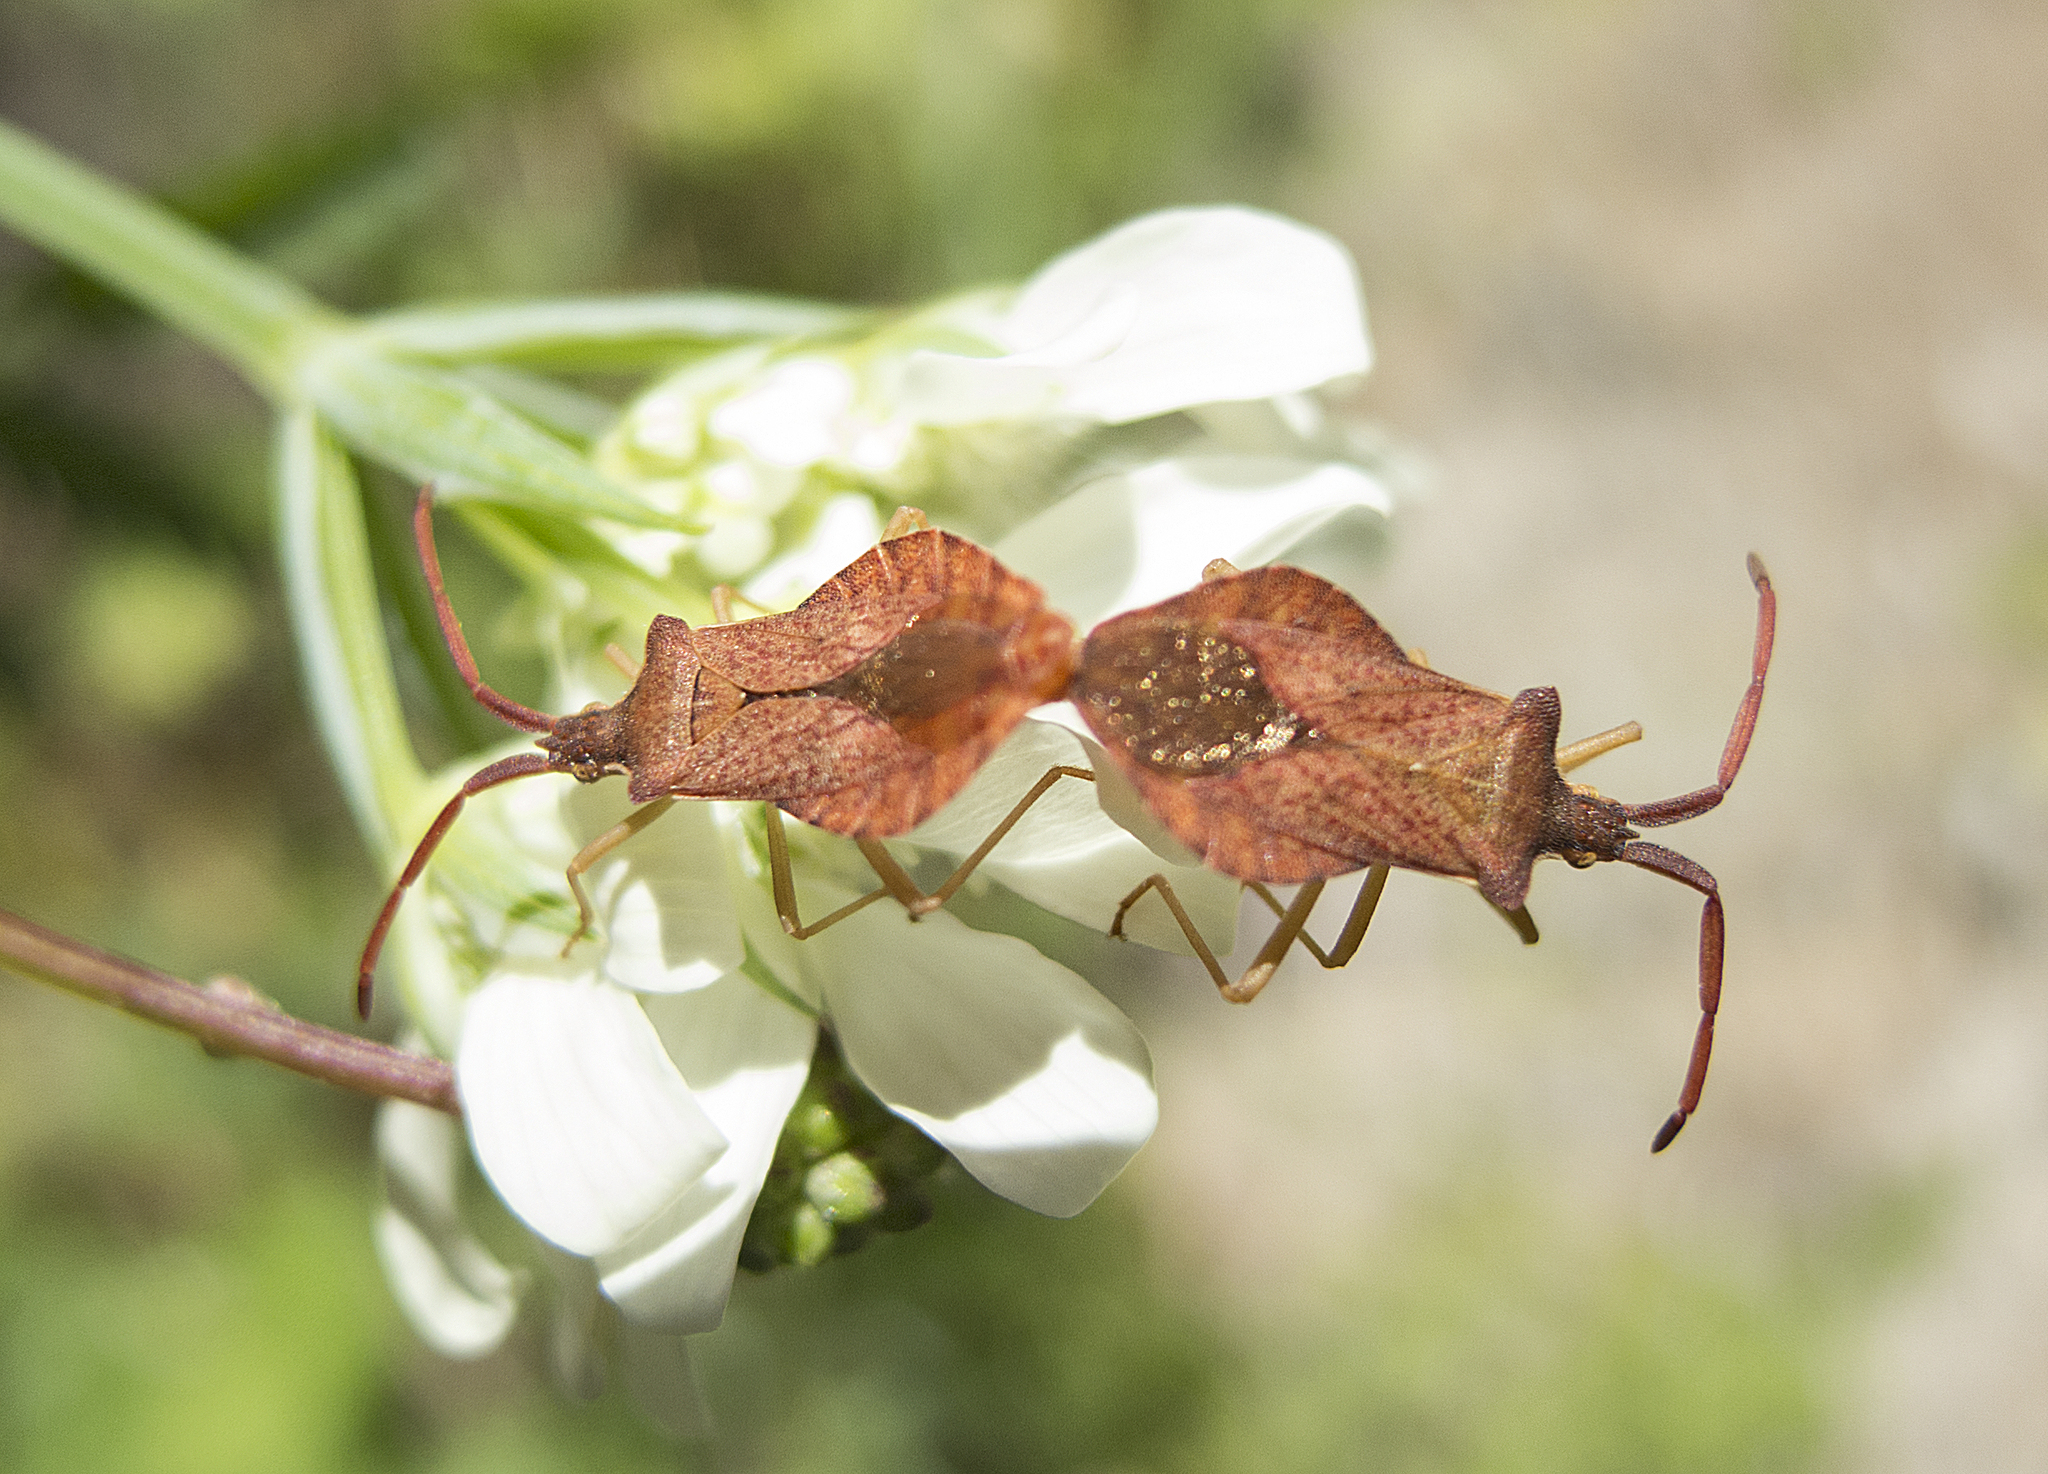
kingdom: Animalia
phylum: Arthropoda
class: Insecta
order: Hemiptera
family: Coreidae
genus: Coreus
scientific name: Coreus marginatus
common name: Dock bug
